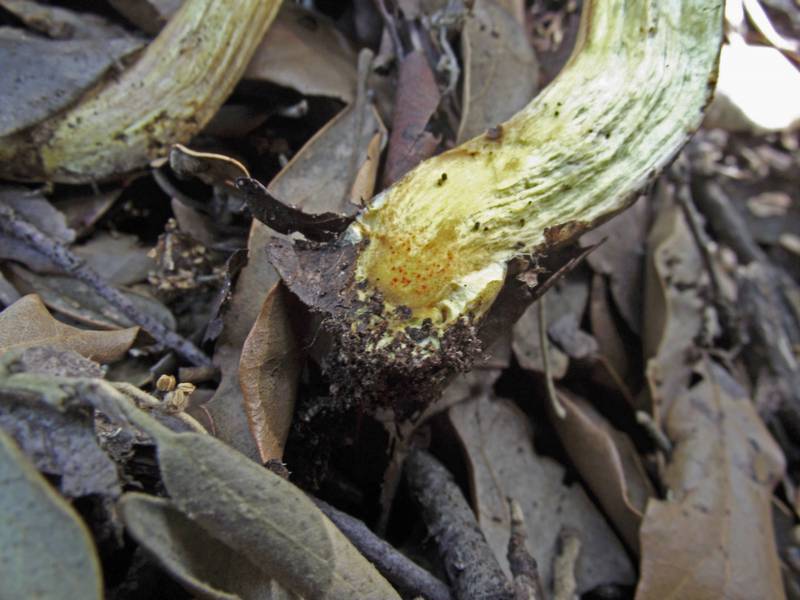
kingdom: Fungi
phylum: Basidiomycota
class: Agaricomycetes
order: Boletales
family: Boletaceae
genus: Hortiboletus
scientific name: Hortiboletus engelii
